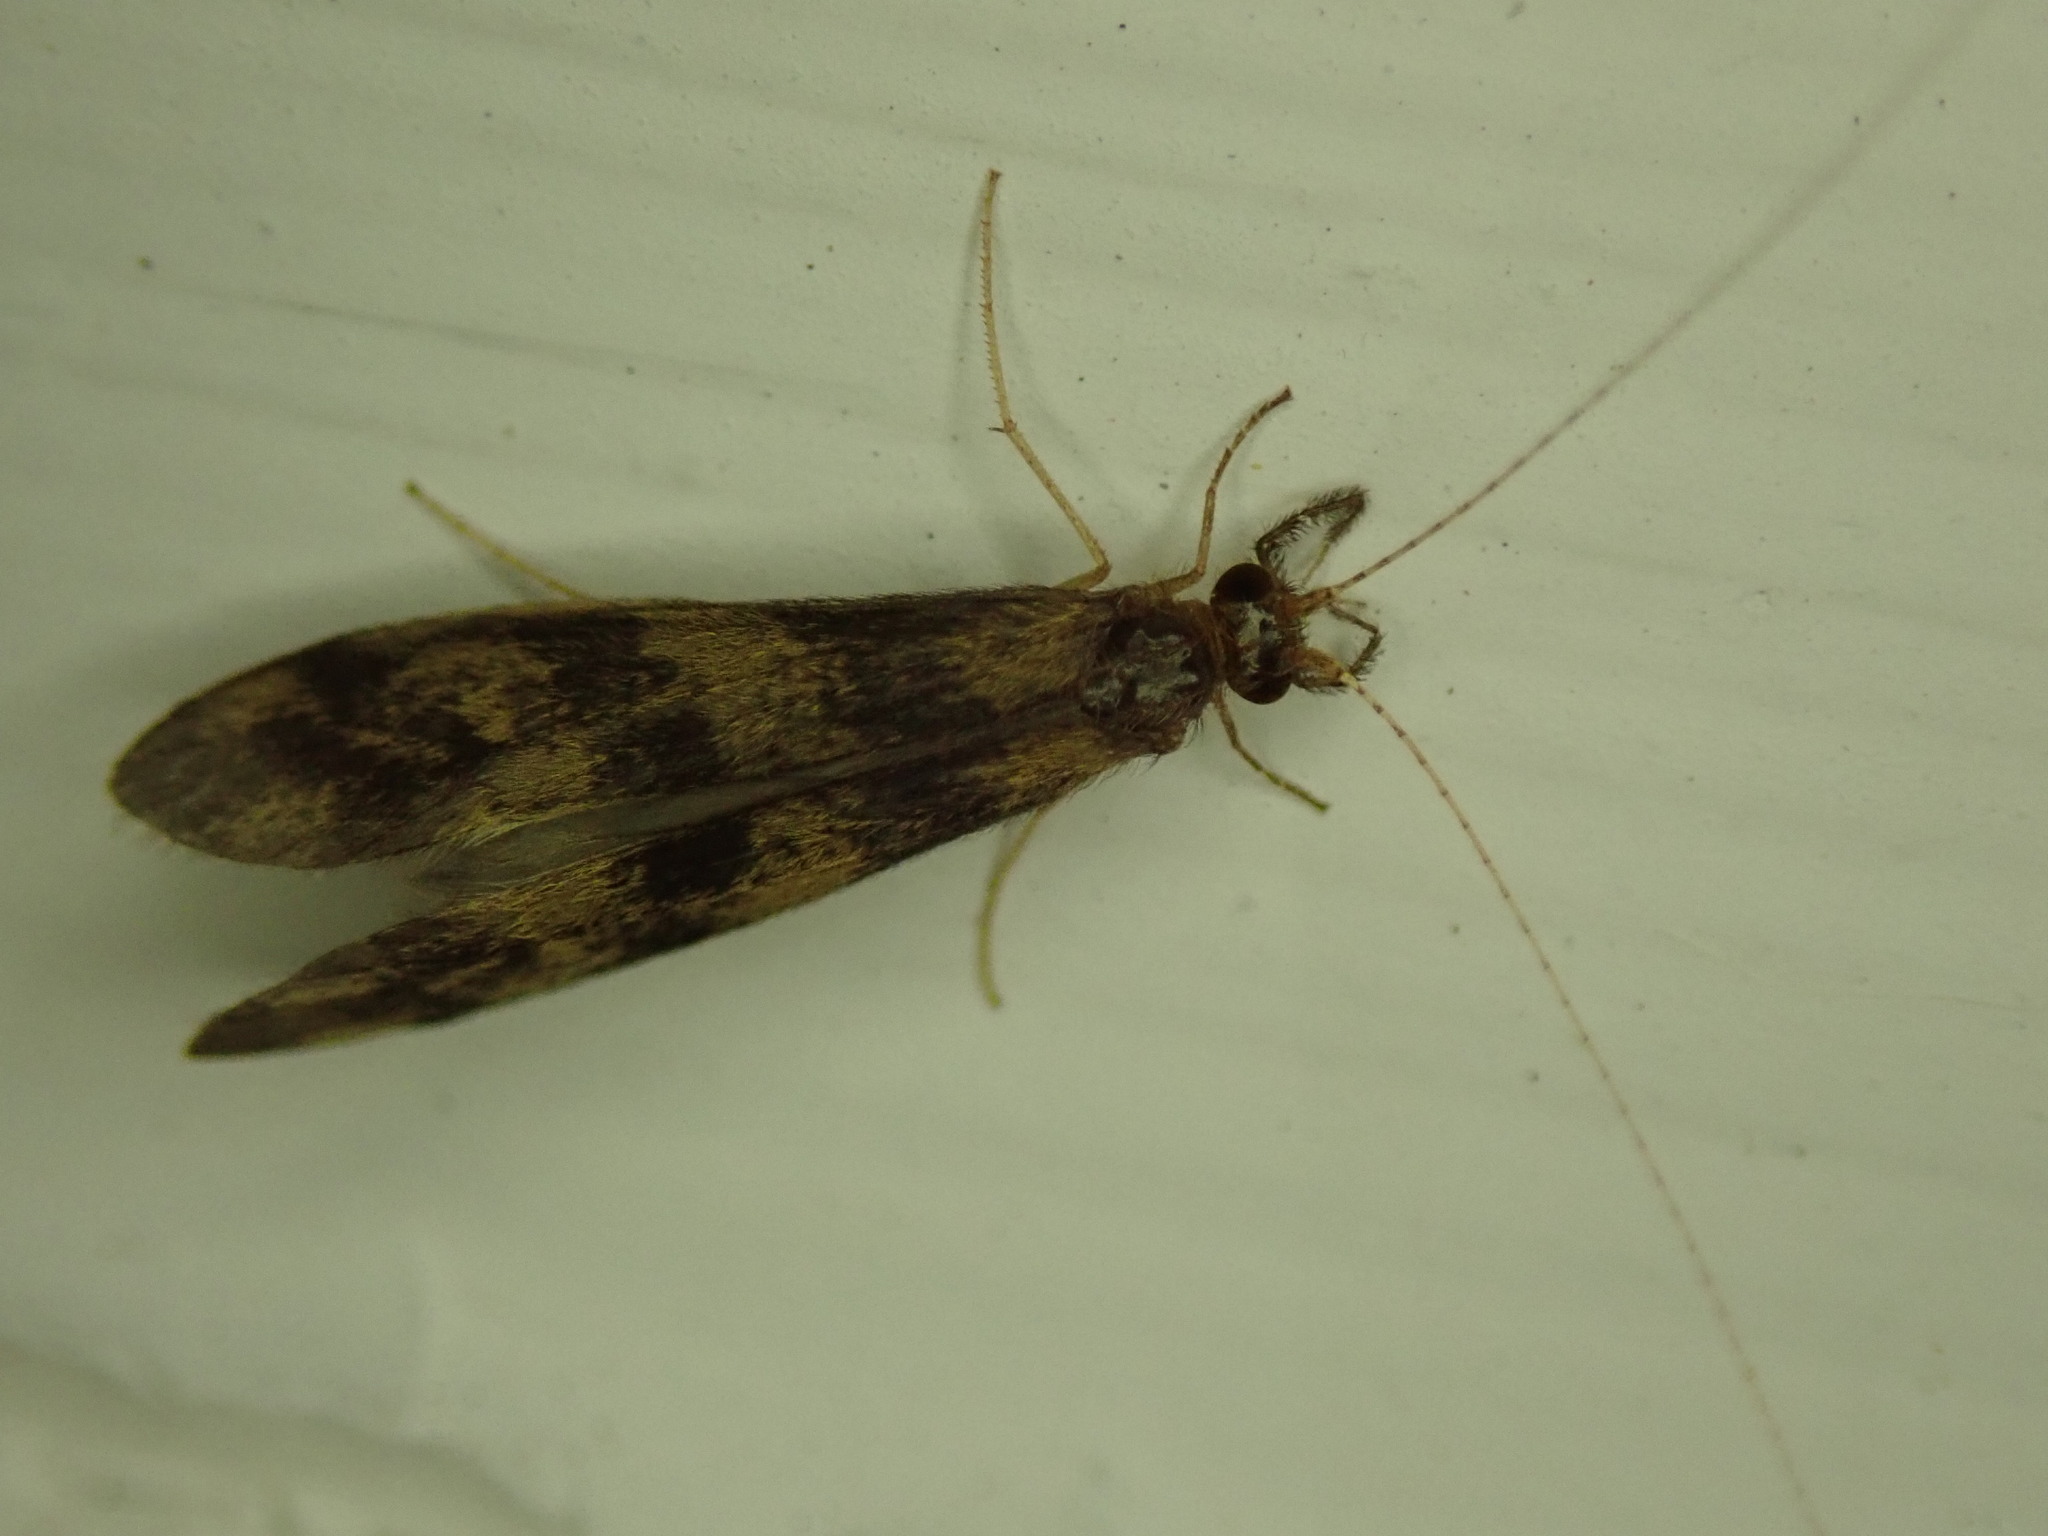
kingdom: Animalia
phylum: Arthropoda
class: Insecta
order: Trichoptera
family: Leptoceridae
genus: Mystacides
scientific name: Mystacides longicornis
